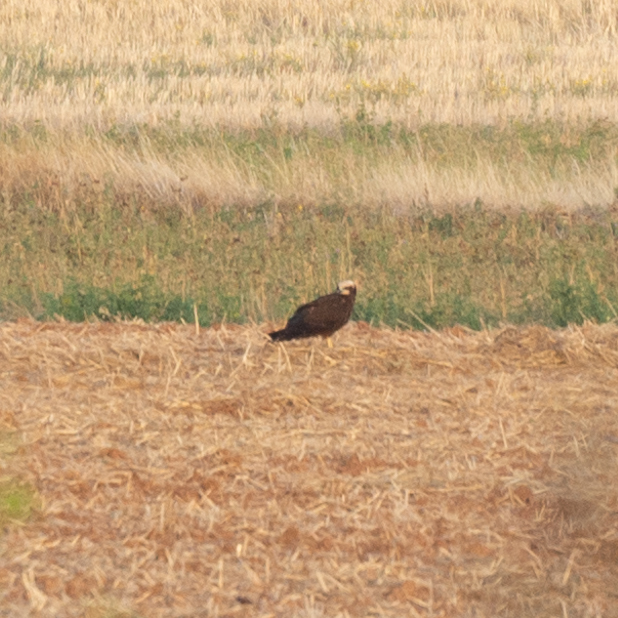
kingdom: Animalia
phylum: Chordata
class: Aves
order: Accipitriformes
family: Accipitridae
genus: Circus
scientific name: Circus aeruginosus
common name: Western marsh harrier
